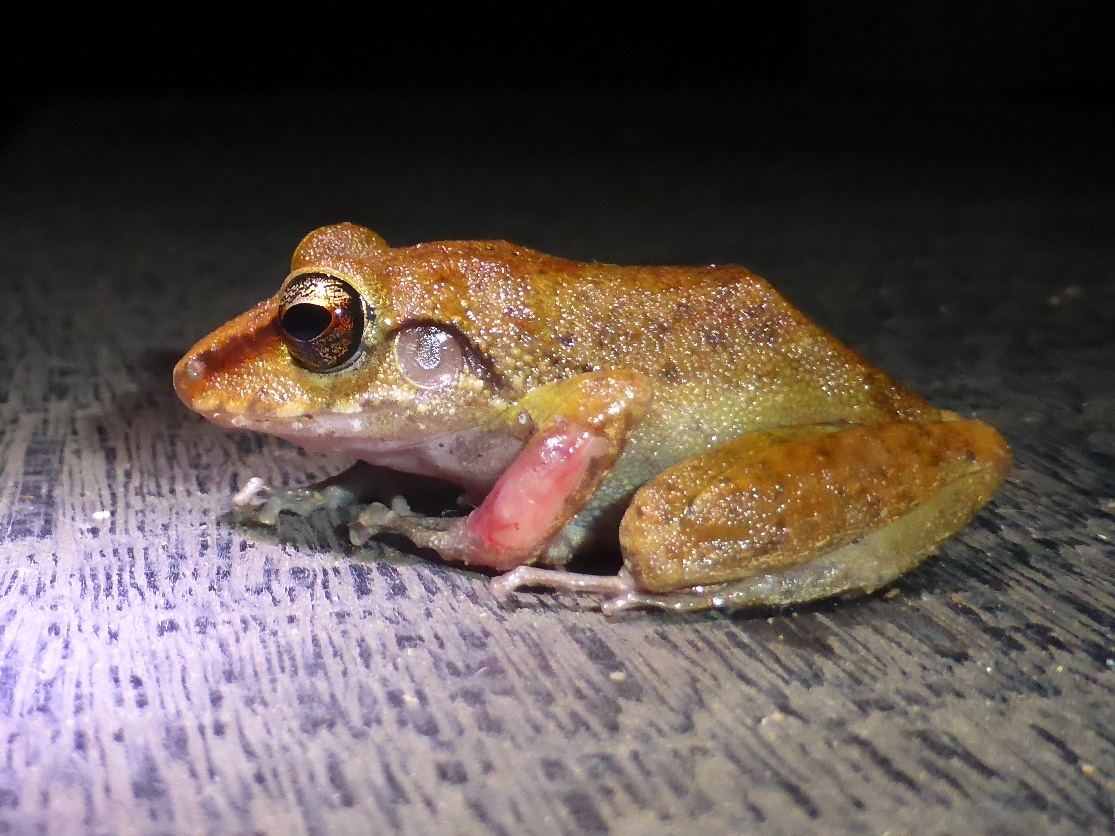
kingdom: Animalia
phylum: Chordata
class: Amphibia
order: Anura
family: Craugastoridae
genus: Pristimantis
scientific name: Pristimantis zeuctotylus
